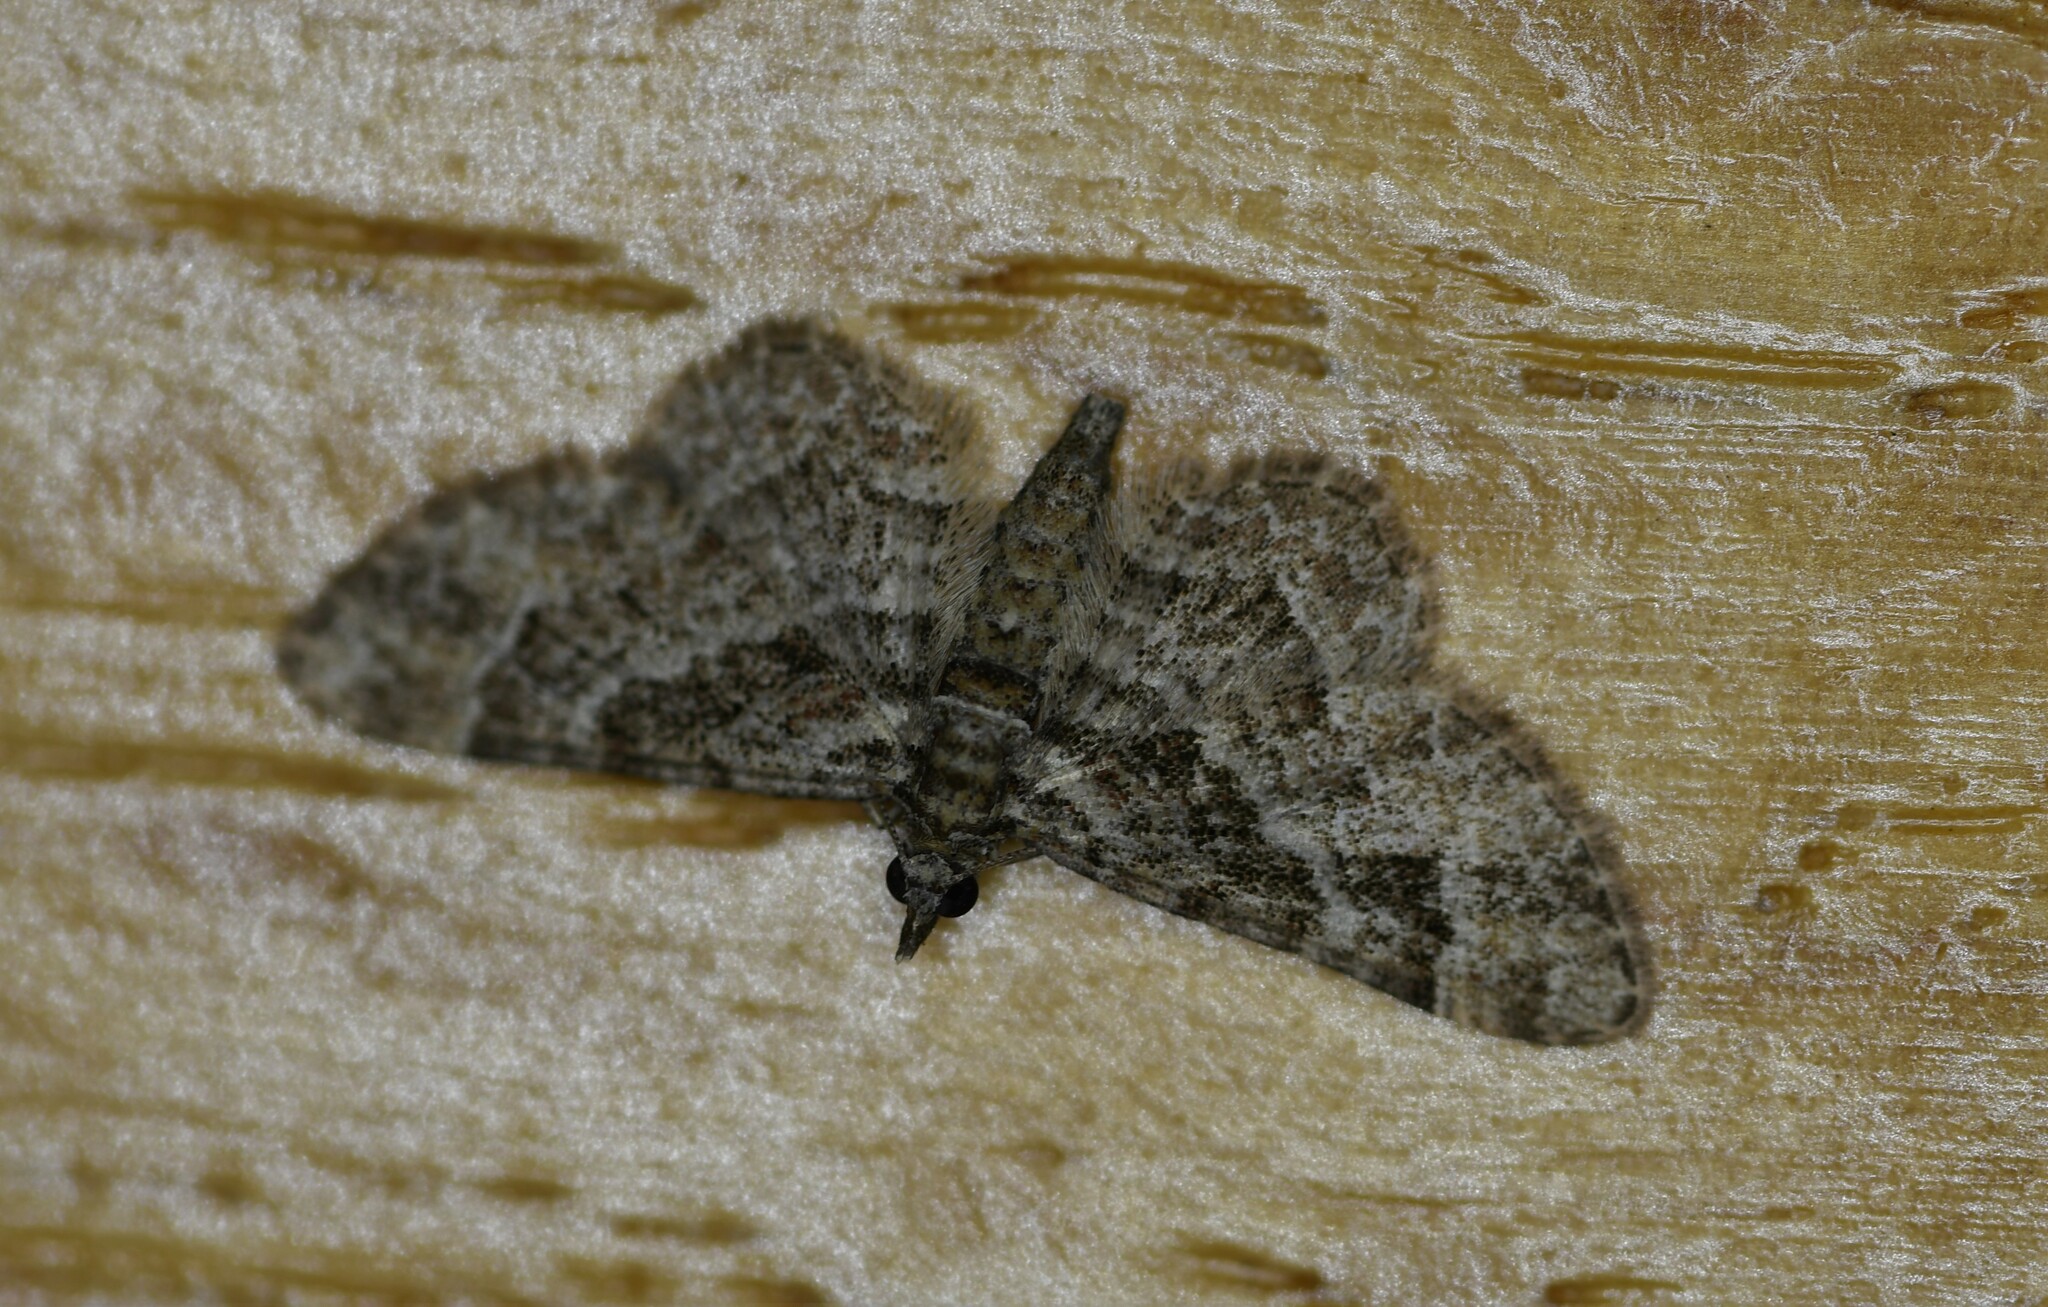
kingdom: Animalia
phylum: Arthropoda
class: Insecta
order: Lepidoptera
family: Geometridae
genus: Gymnoscelis
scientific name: Gymnoscelis rufifasciata
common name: Double-striped pug
